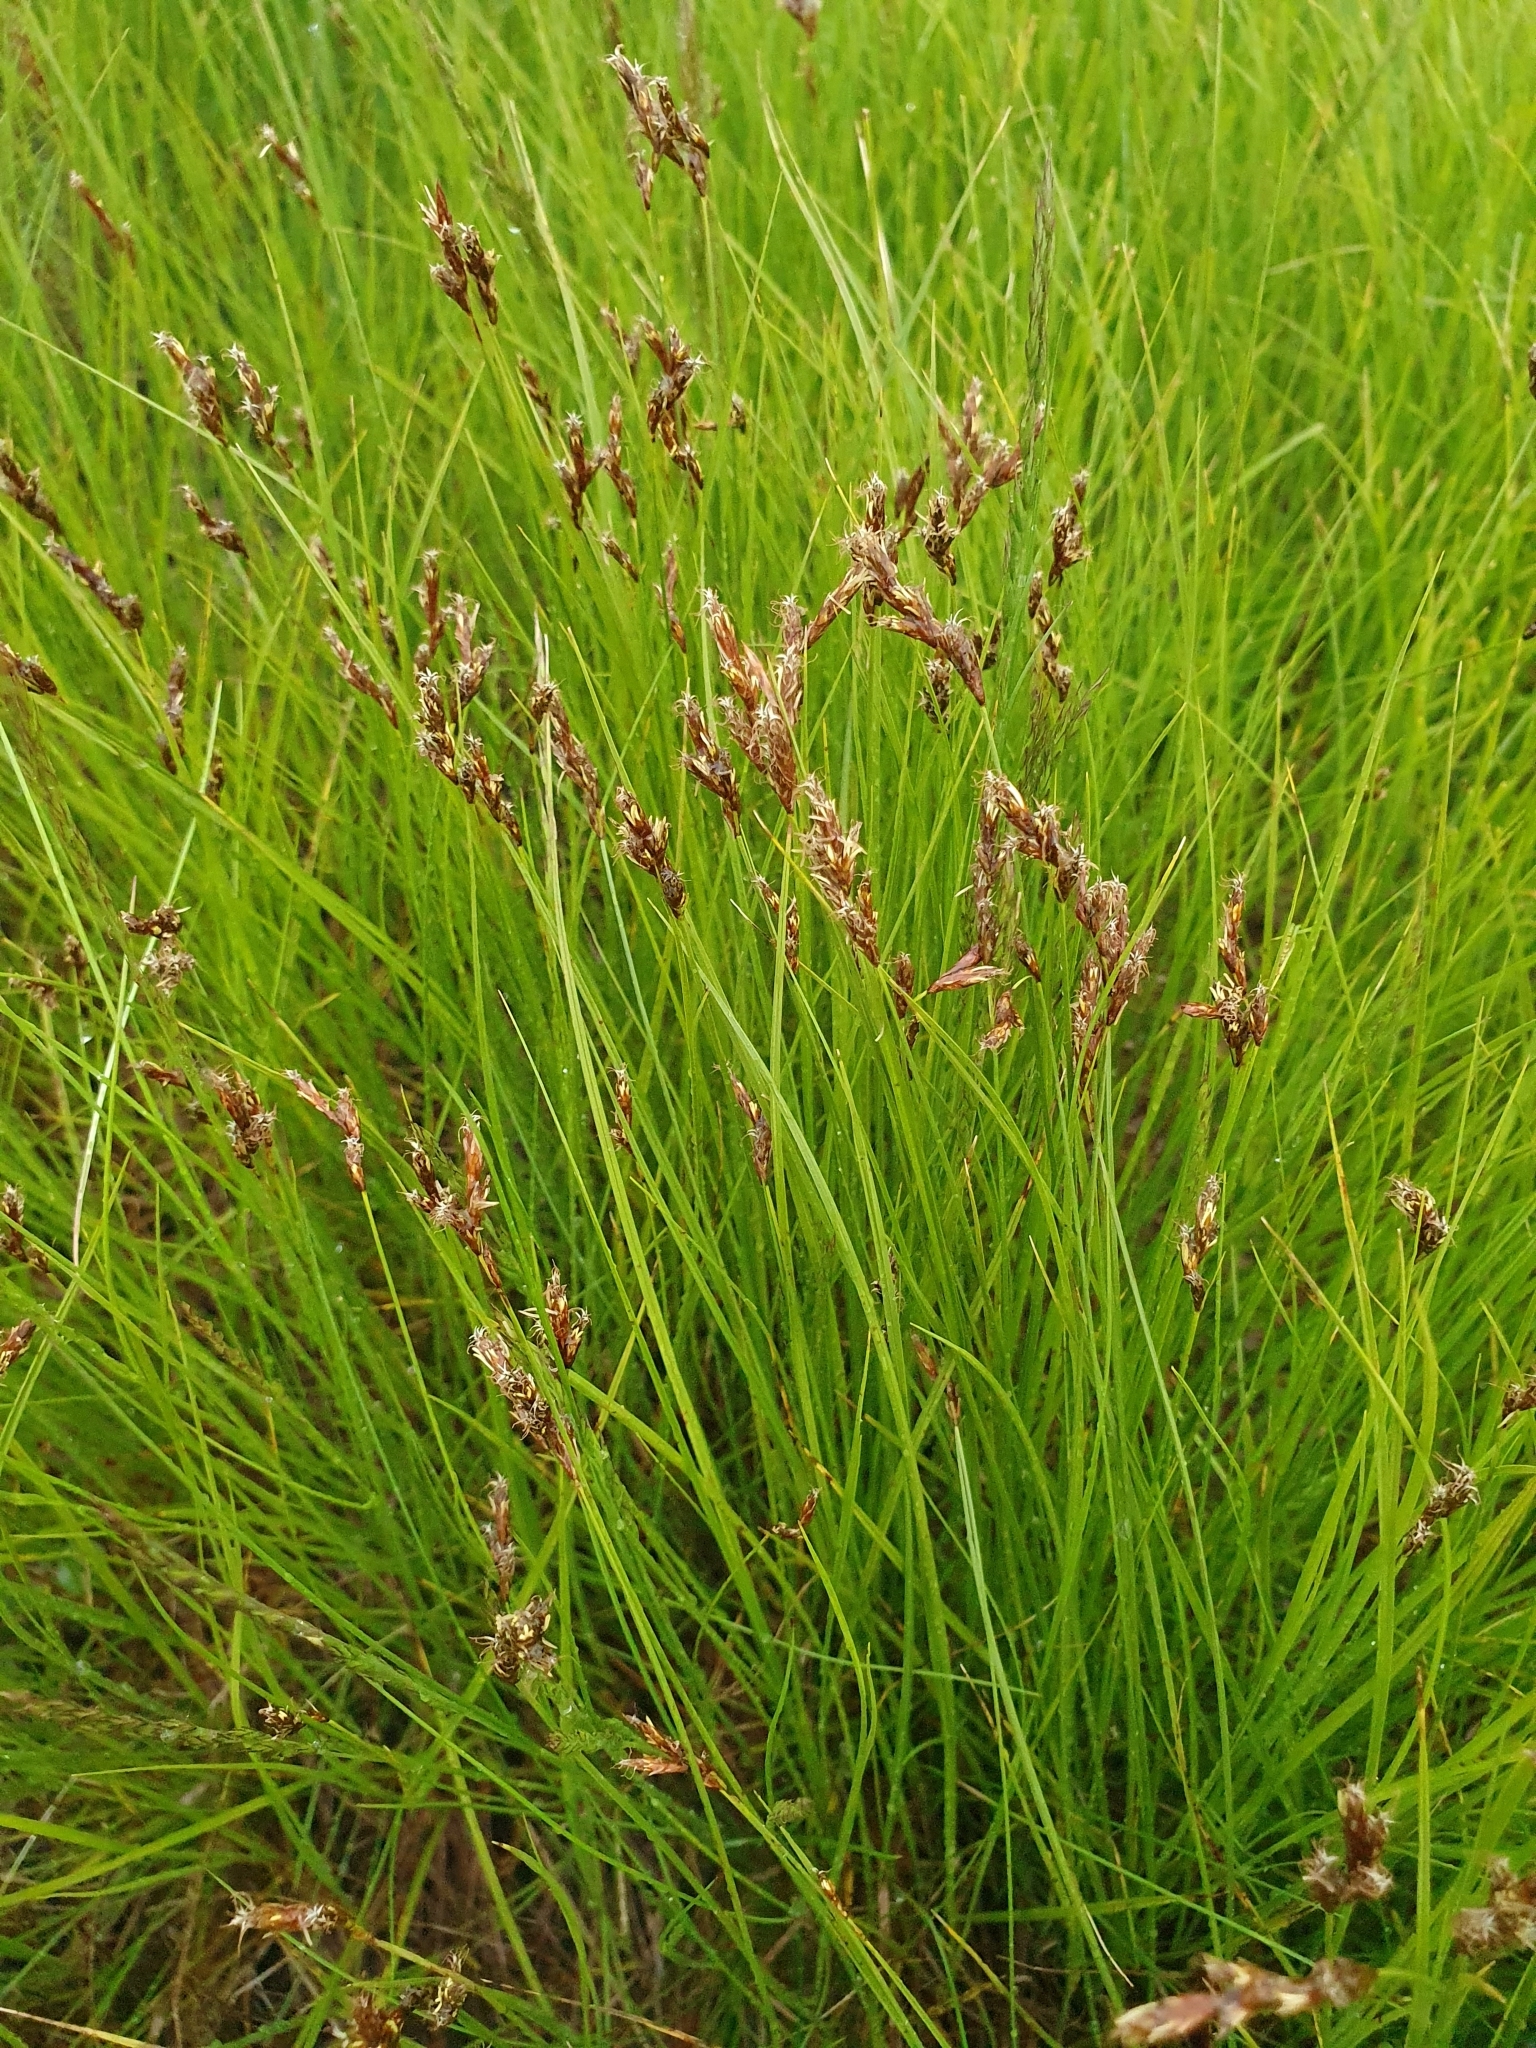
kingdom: Plantae
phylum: Tracheophyta
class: Liliopsida
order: Poales
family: Cyperaceae
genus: Carex
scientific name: Carex praecox
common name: Early sedge
